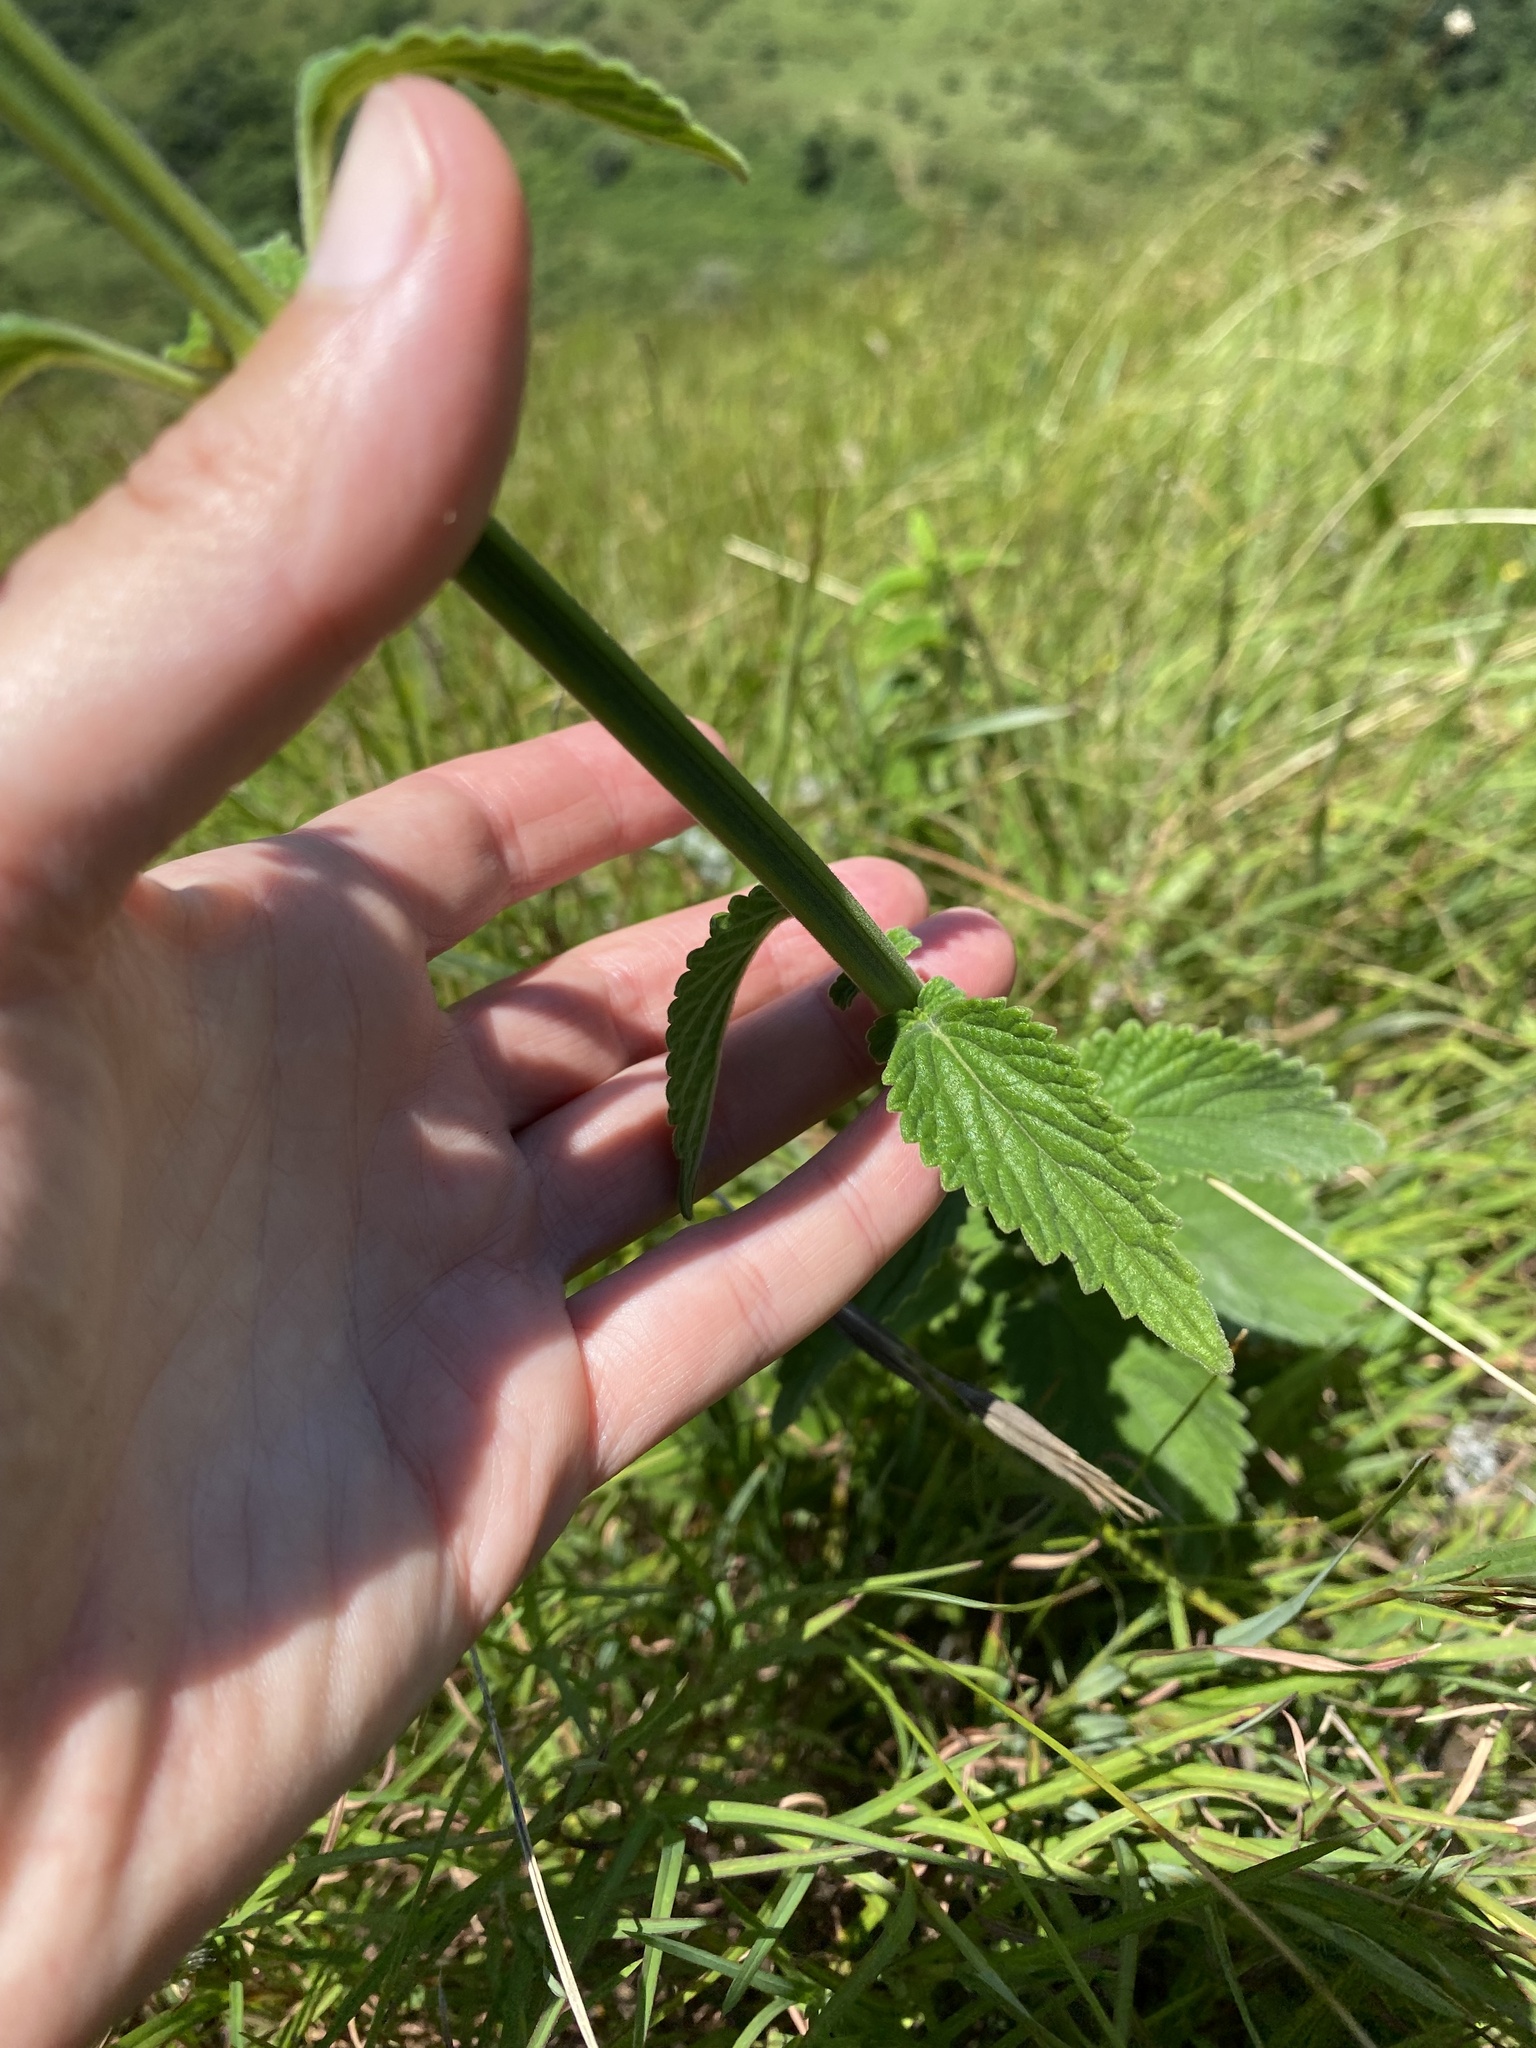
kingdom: Plantae
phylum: Tracheophyta
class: Magnoliopsida
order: Lamiales
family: Lamiaceae
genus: Leonotis
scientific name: Leonotis ocymifolia
